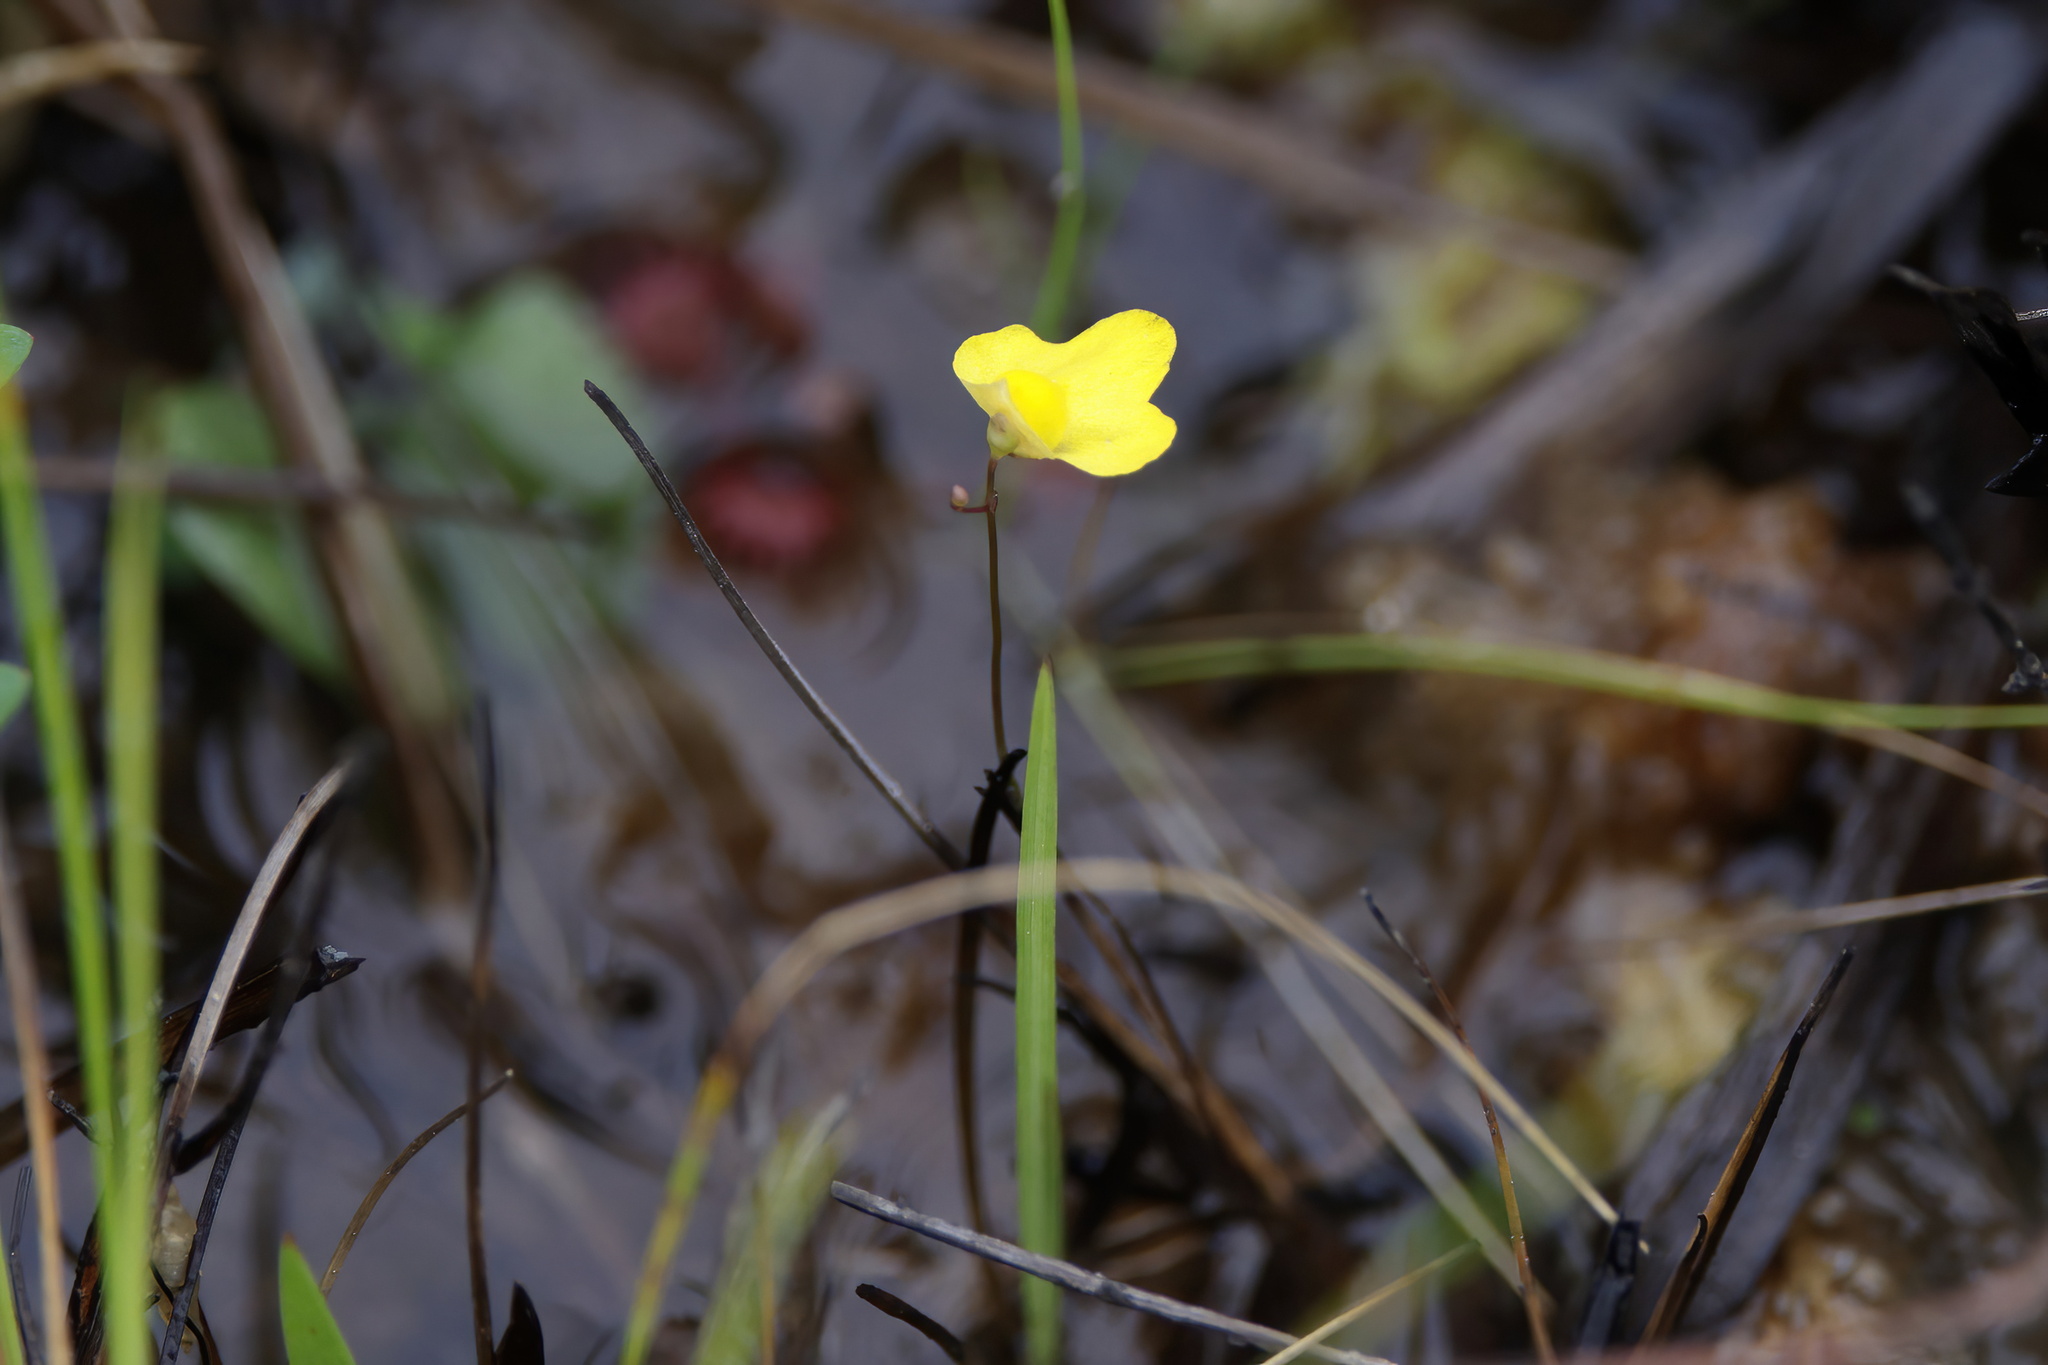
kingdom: Plantae
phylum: Tracheophyta
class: Magnoliopsida
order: Lamiales
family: Lentibulariaceae
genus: Utricularia
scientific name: Utricularia subulata
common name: Tiny bladderwort
